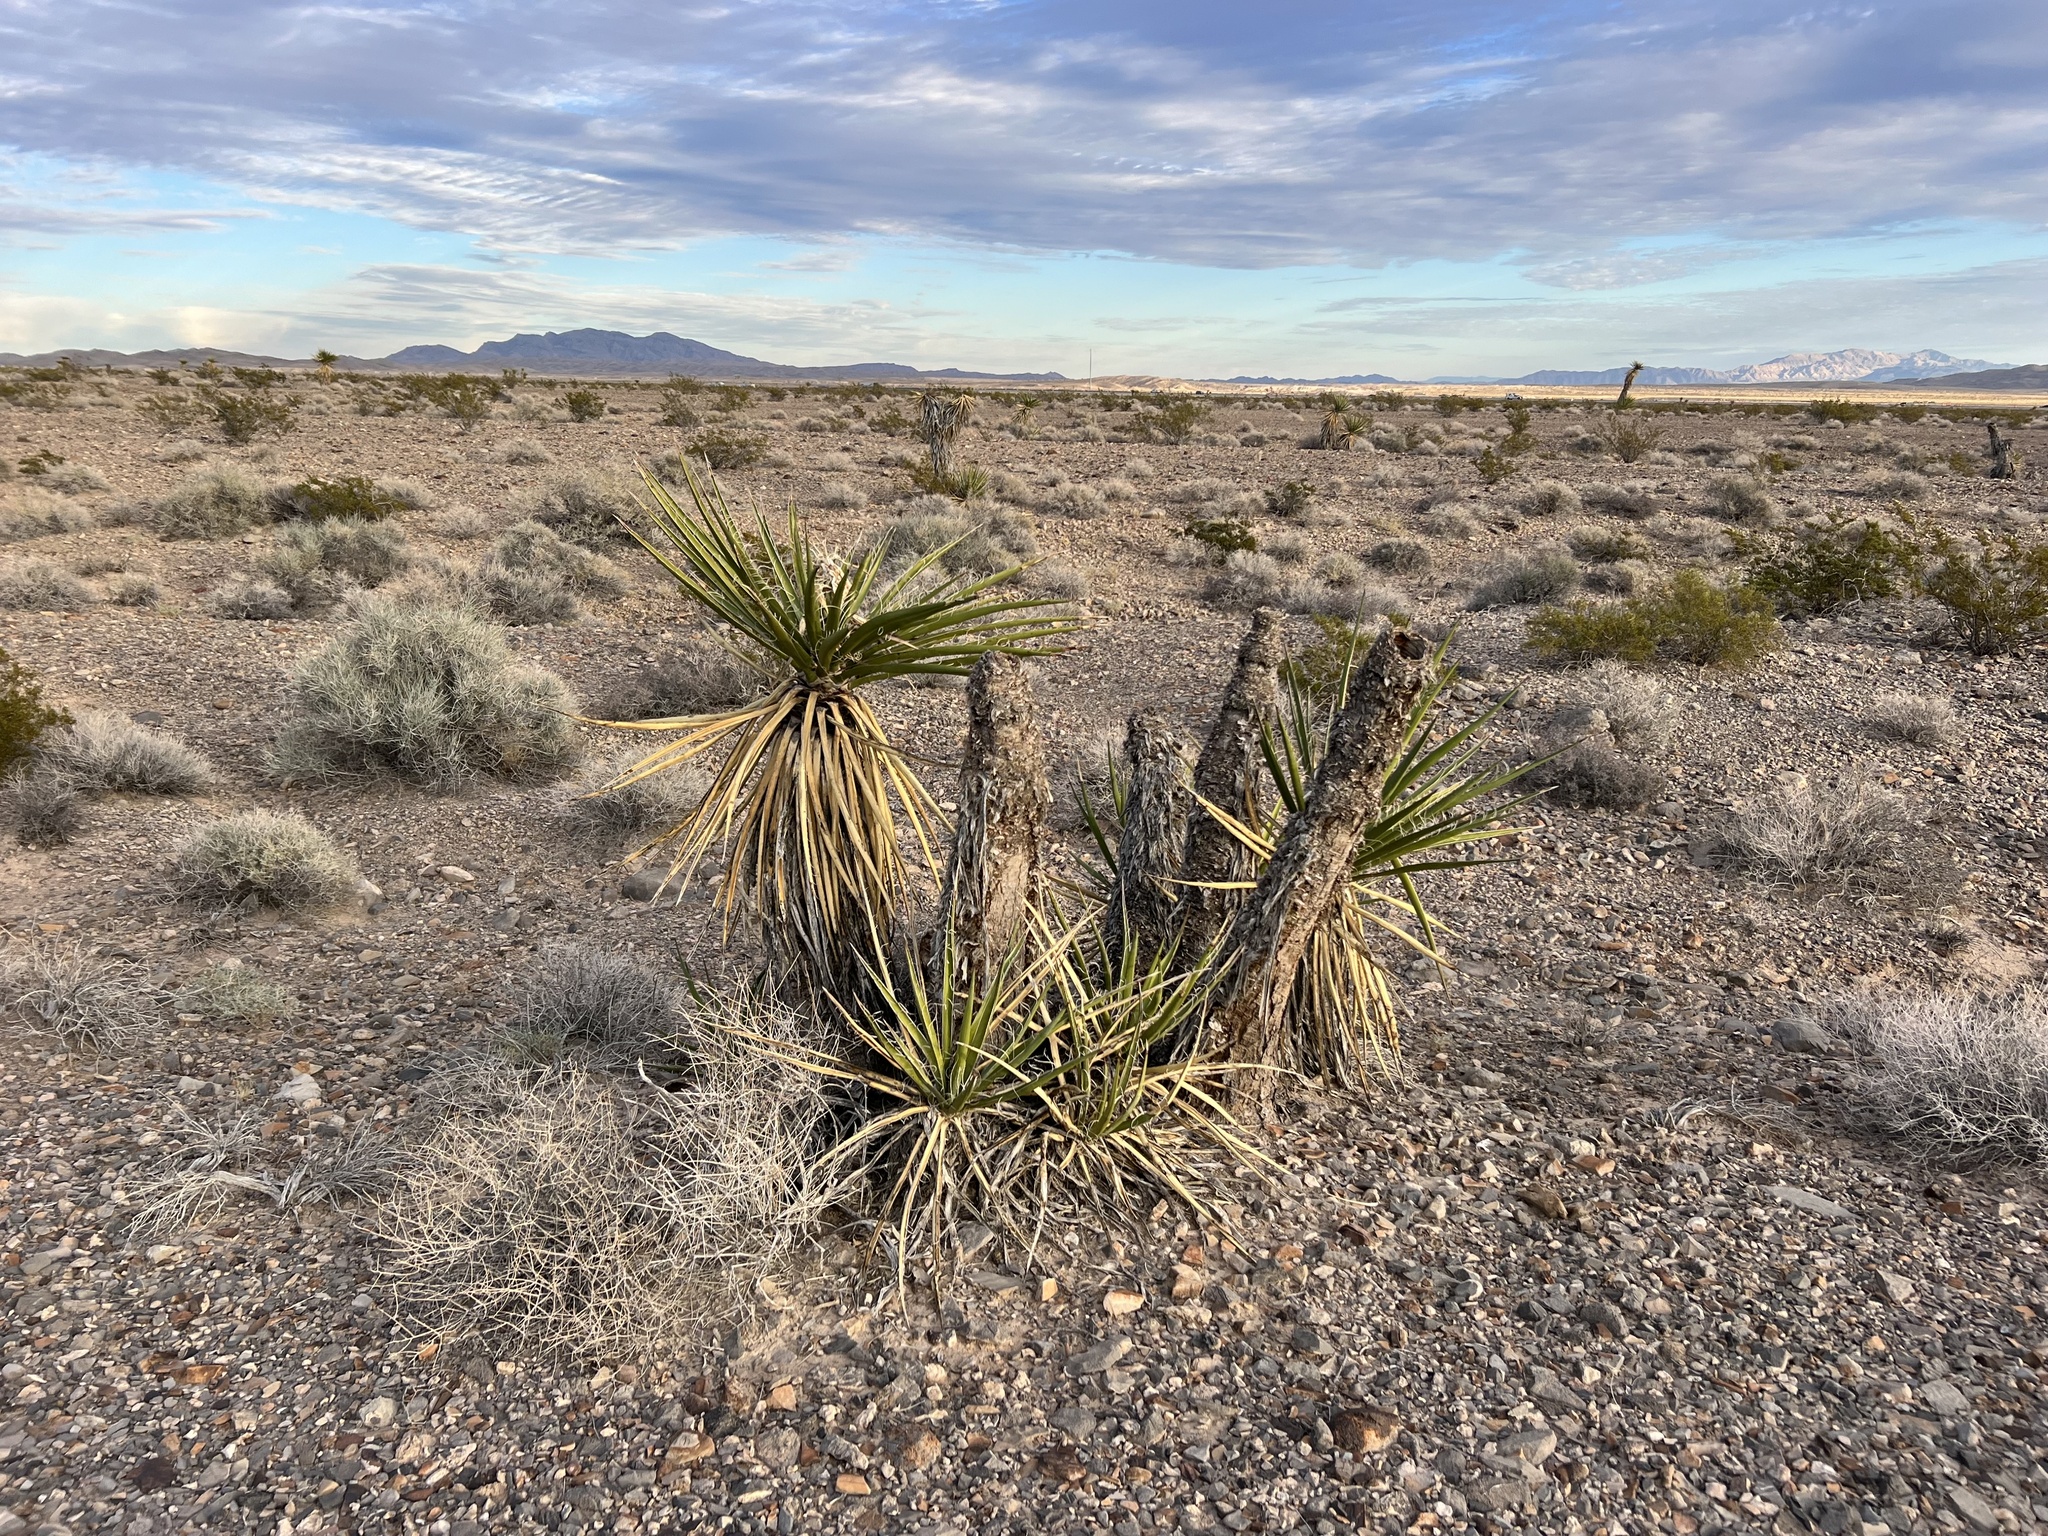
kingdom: Plantae
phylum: Tracheophyta
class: Liliopsida
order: Asparagales
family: Asparagaceae
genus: Yucca
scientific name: Yucca schidigera
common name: Mojave yucca
